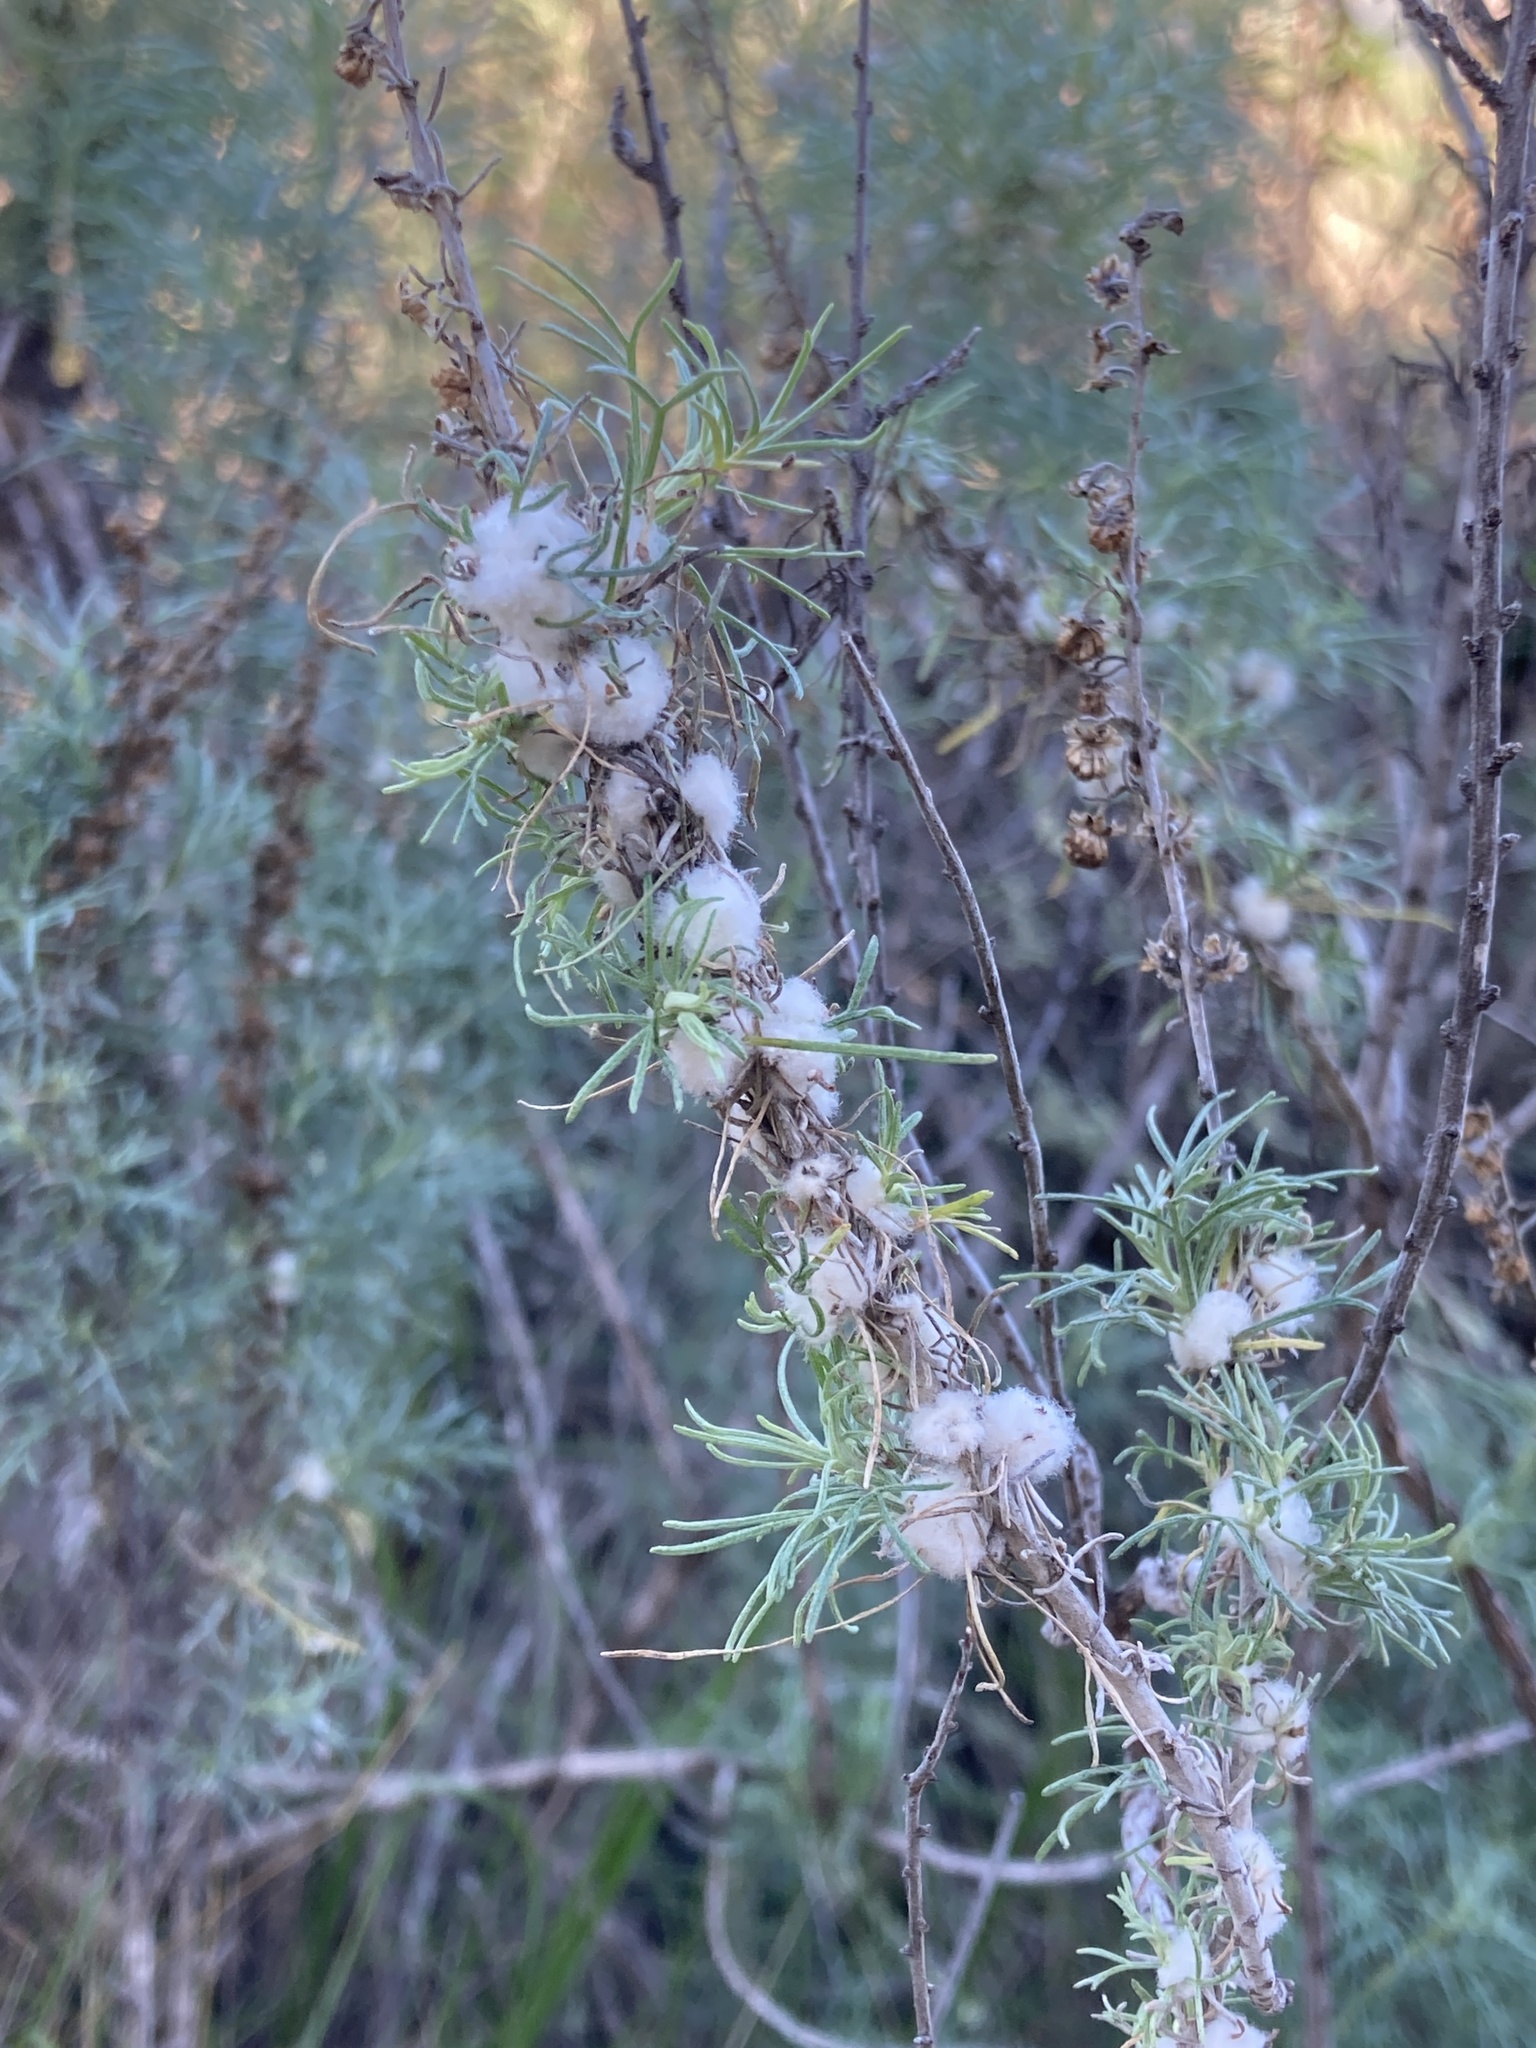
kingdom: Animalia
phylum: Arthropoda
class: Insecta
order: Diptera
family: Cecidomyiidae
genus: Rhopalomyia
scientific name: Rhopalomyia floccosa
